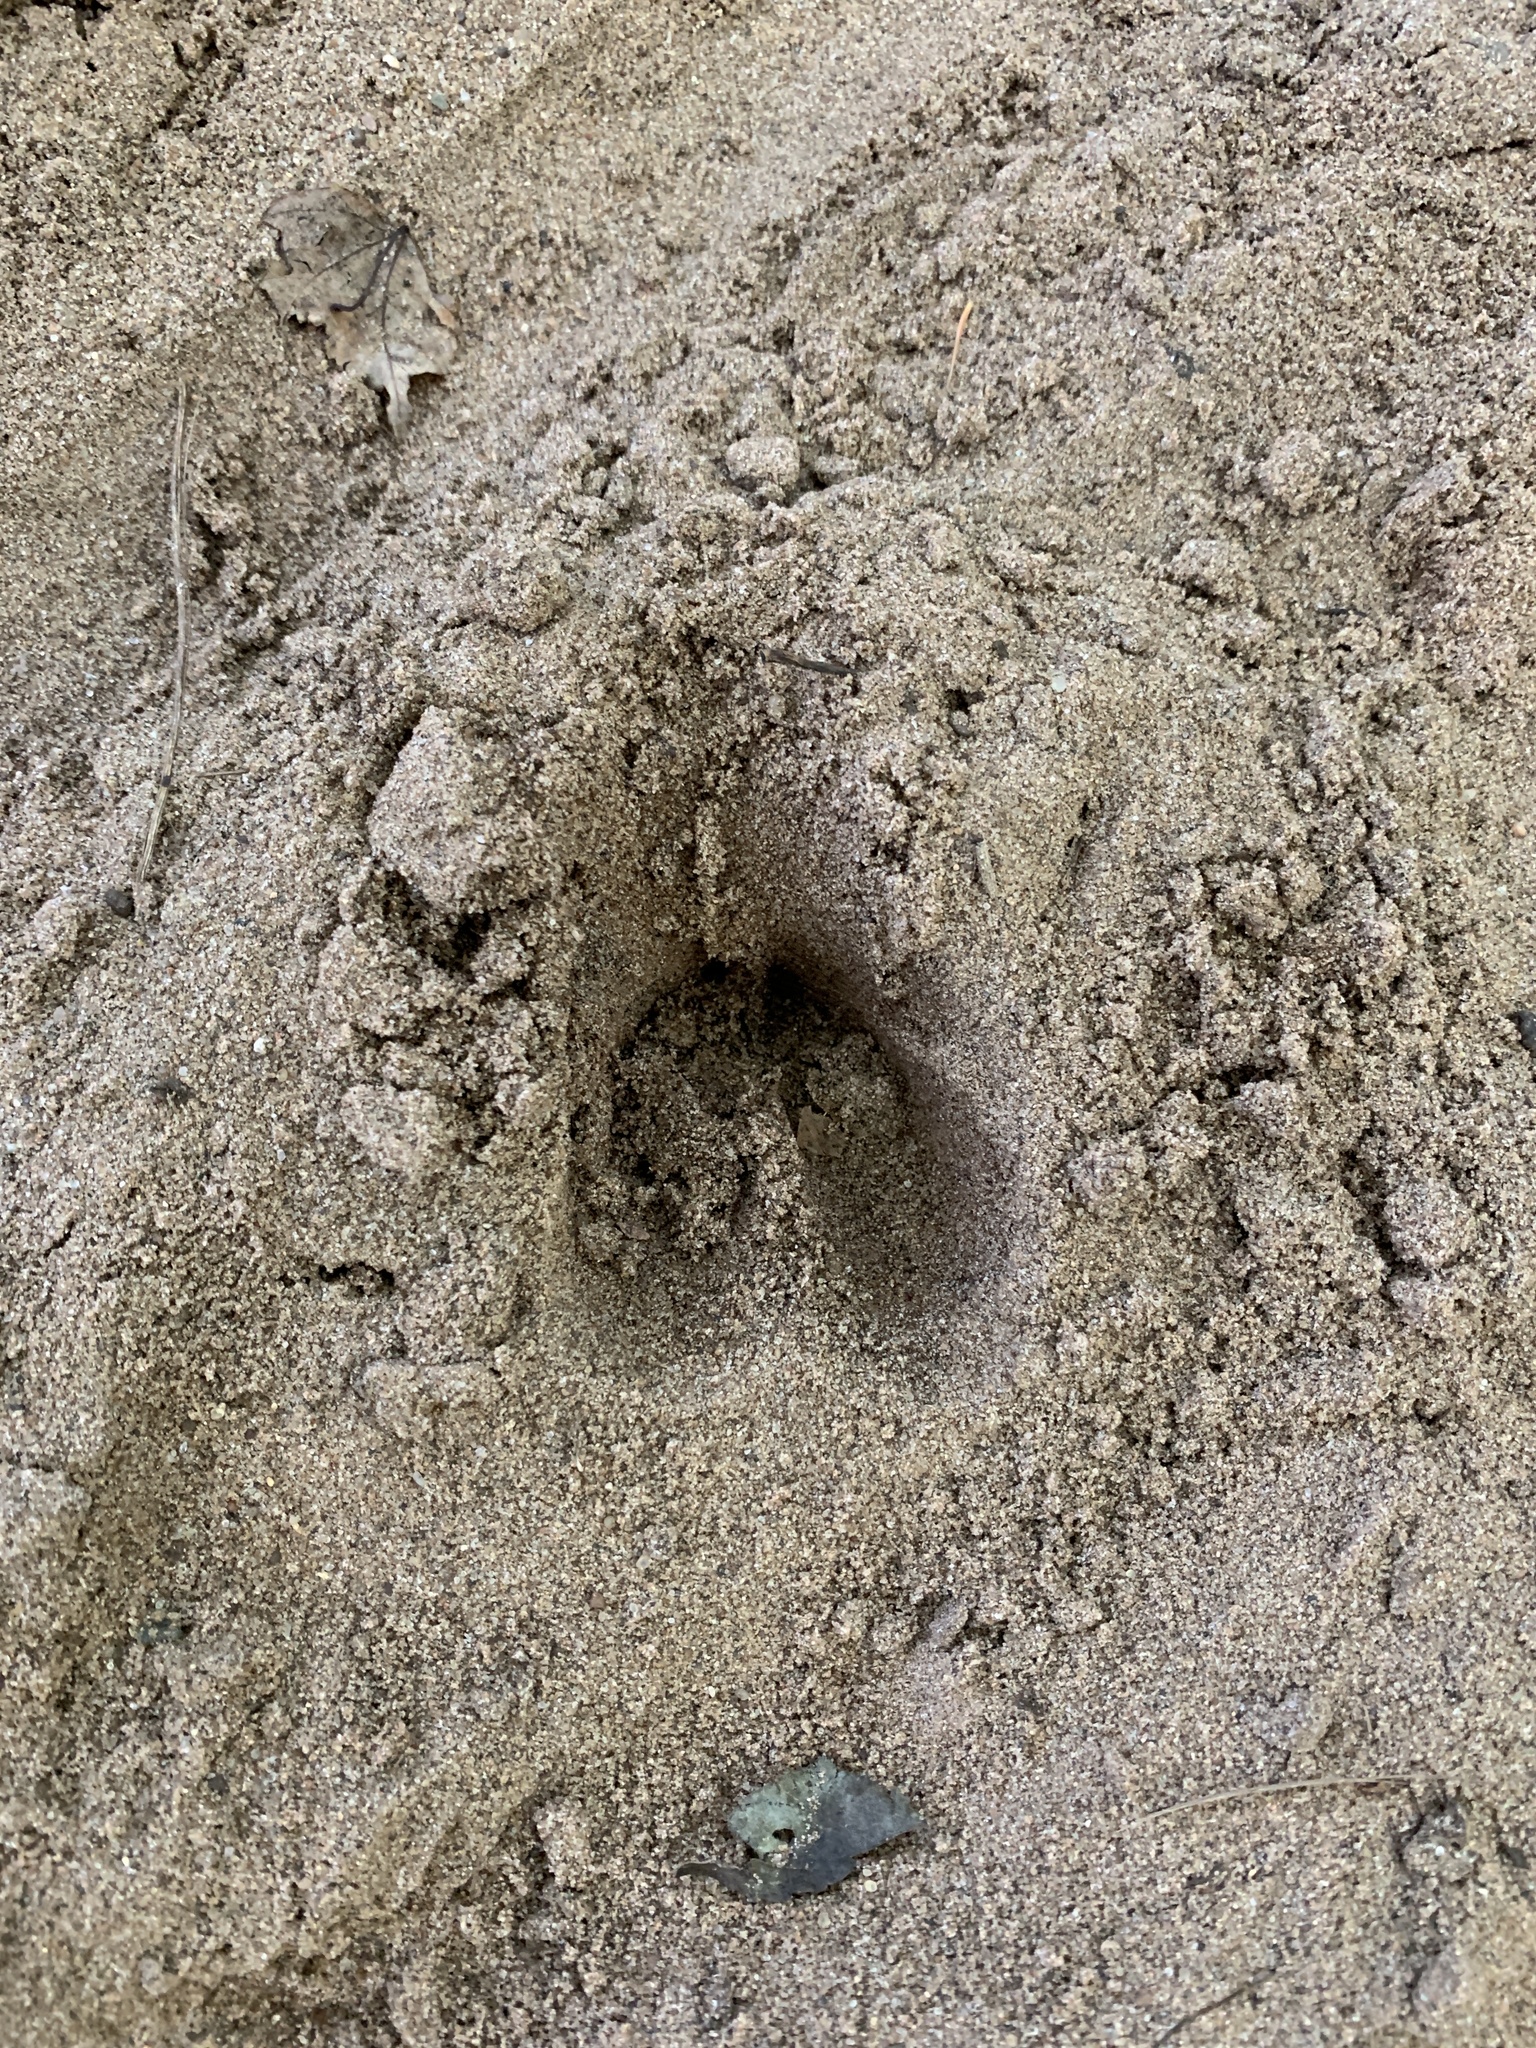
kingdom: Animalia
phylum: Chordata
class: Mammalia
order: Artiodactyla
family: Cervidae
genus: Odocoileus
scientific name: Odocoileus virginianus
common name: White-tailed deer
